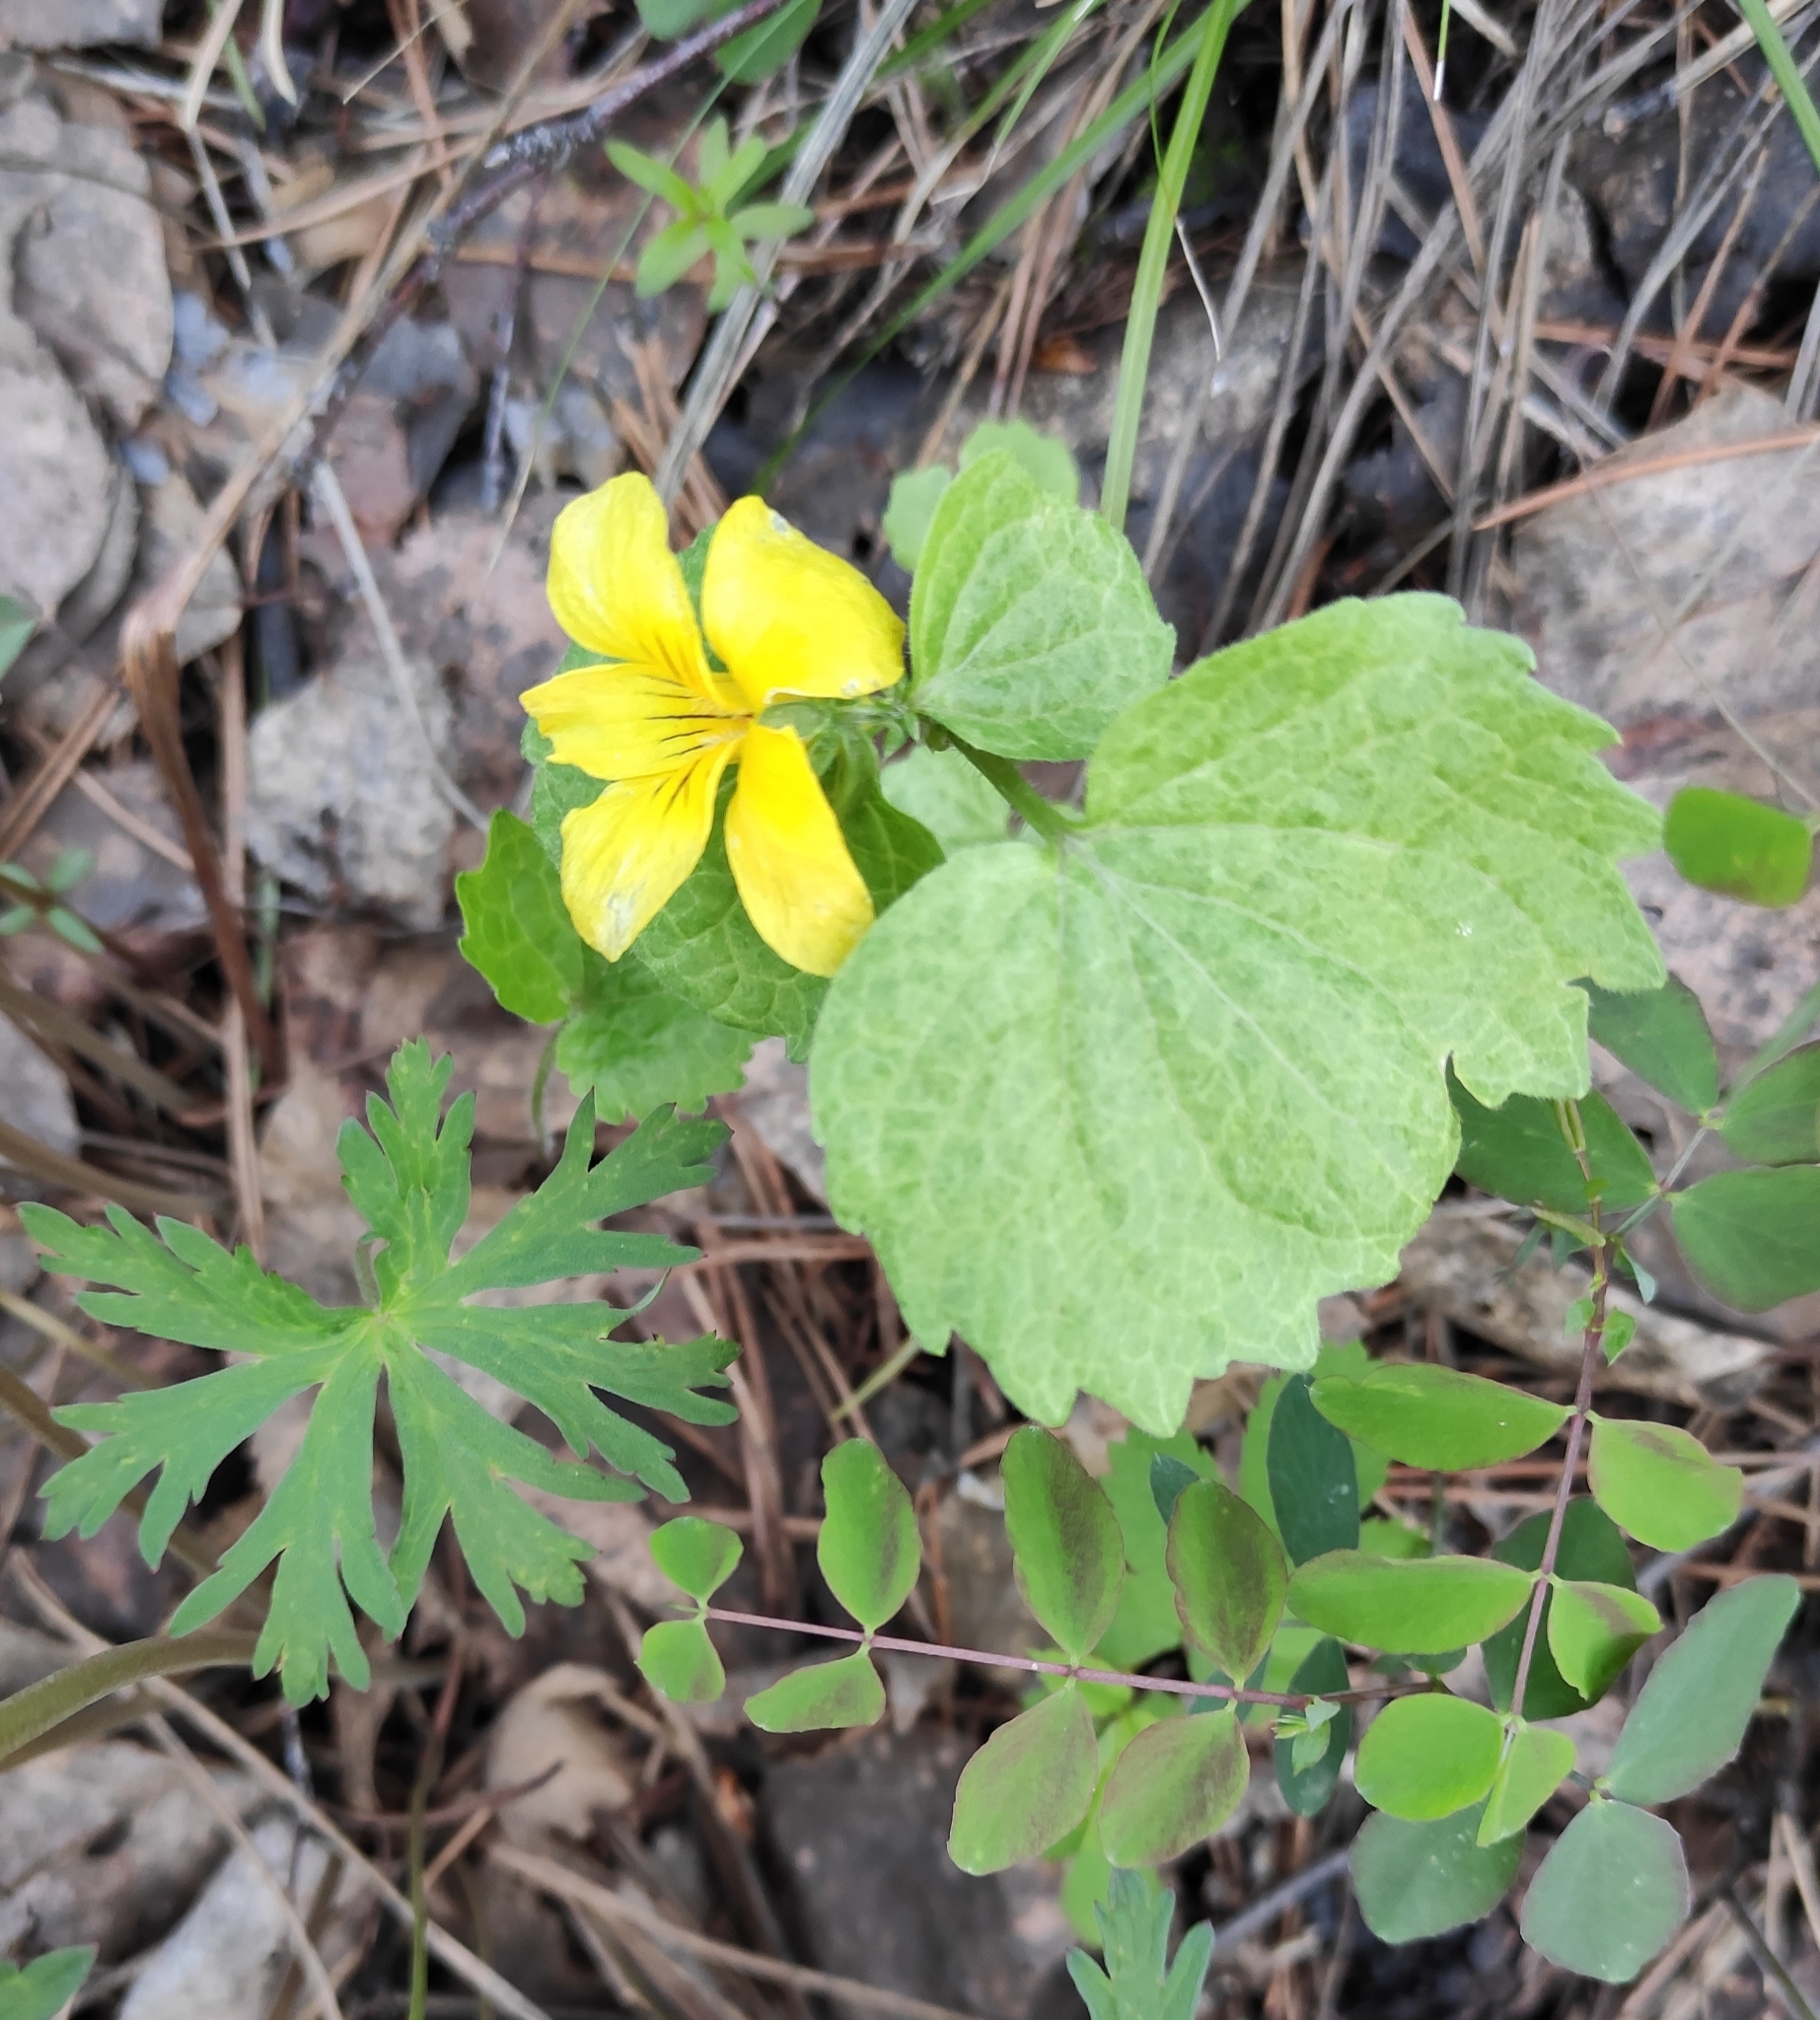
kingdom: Plantae
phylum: Tracheophyta
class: Magnoliopsida
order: Malpighiales
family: Violaceae
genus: Viola
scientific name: Viola uniflora
